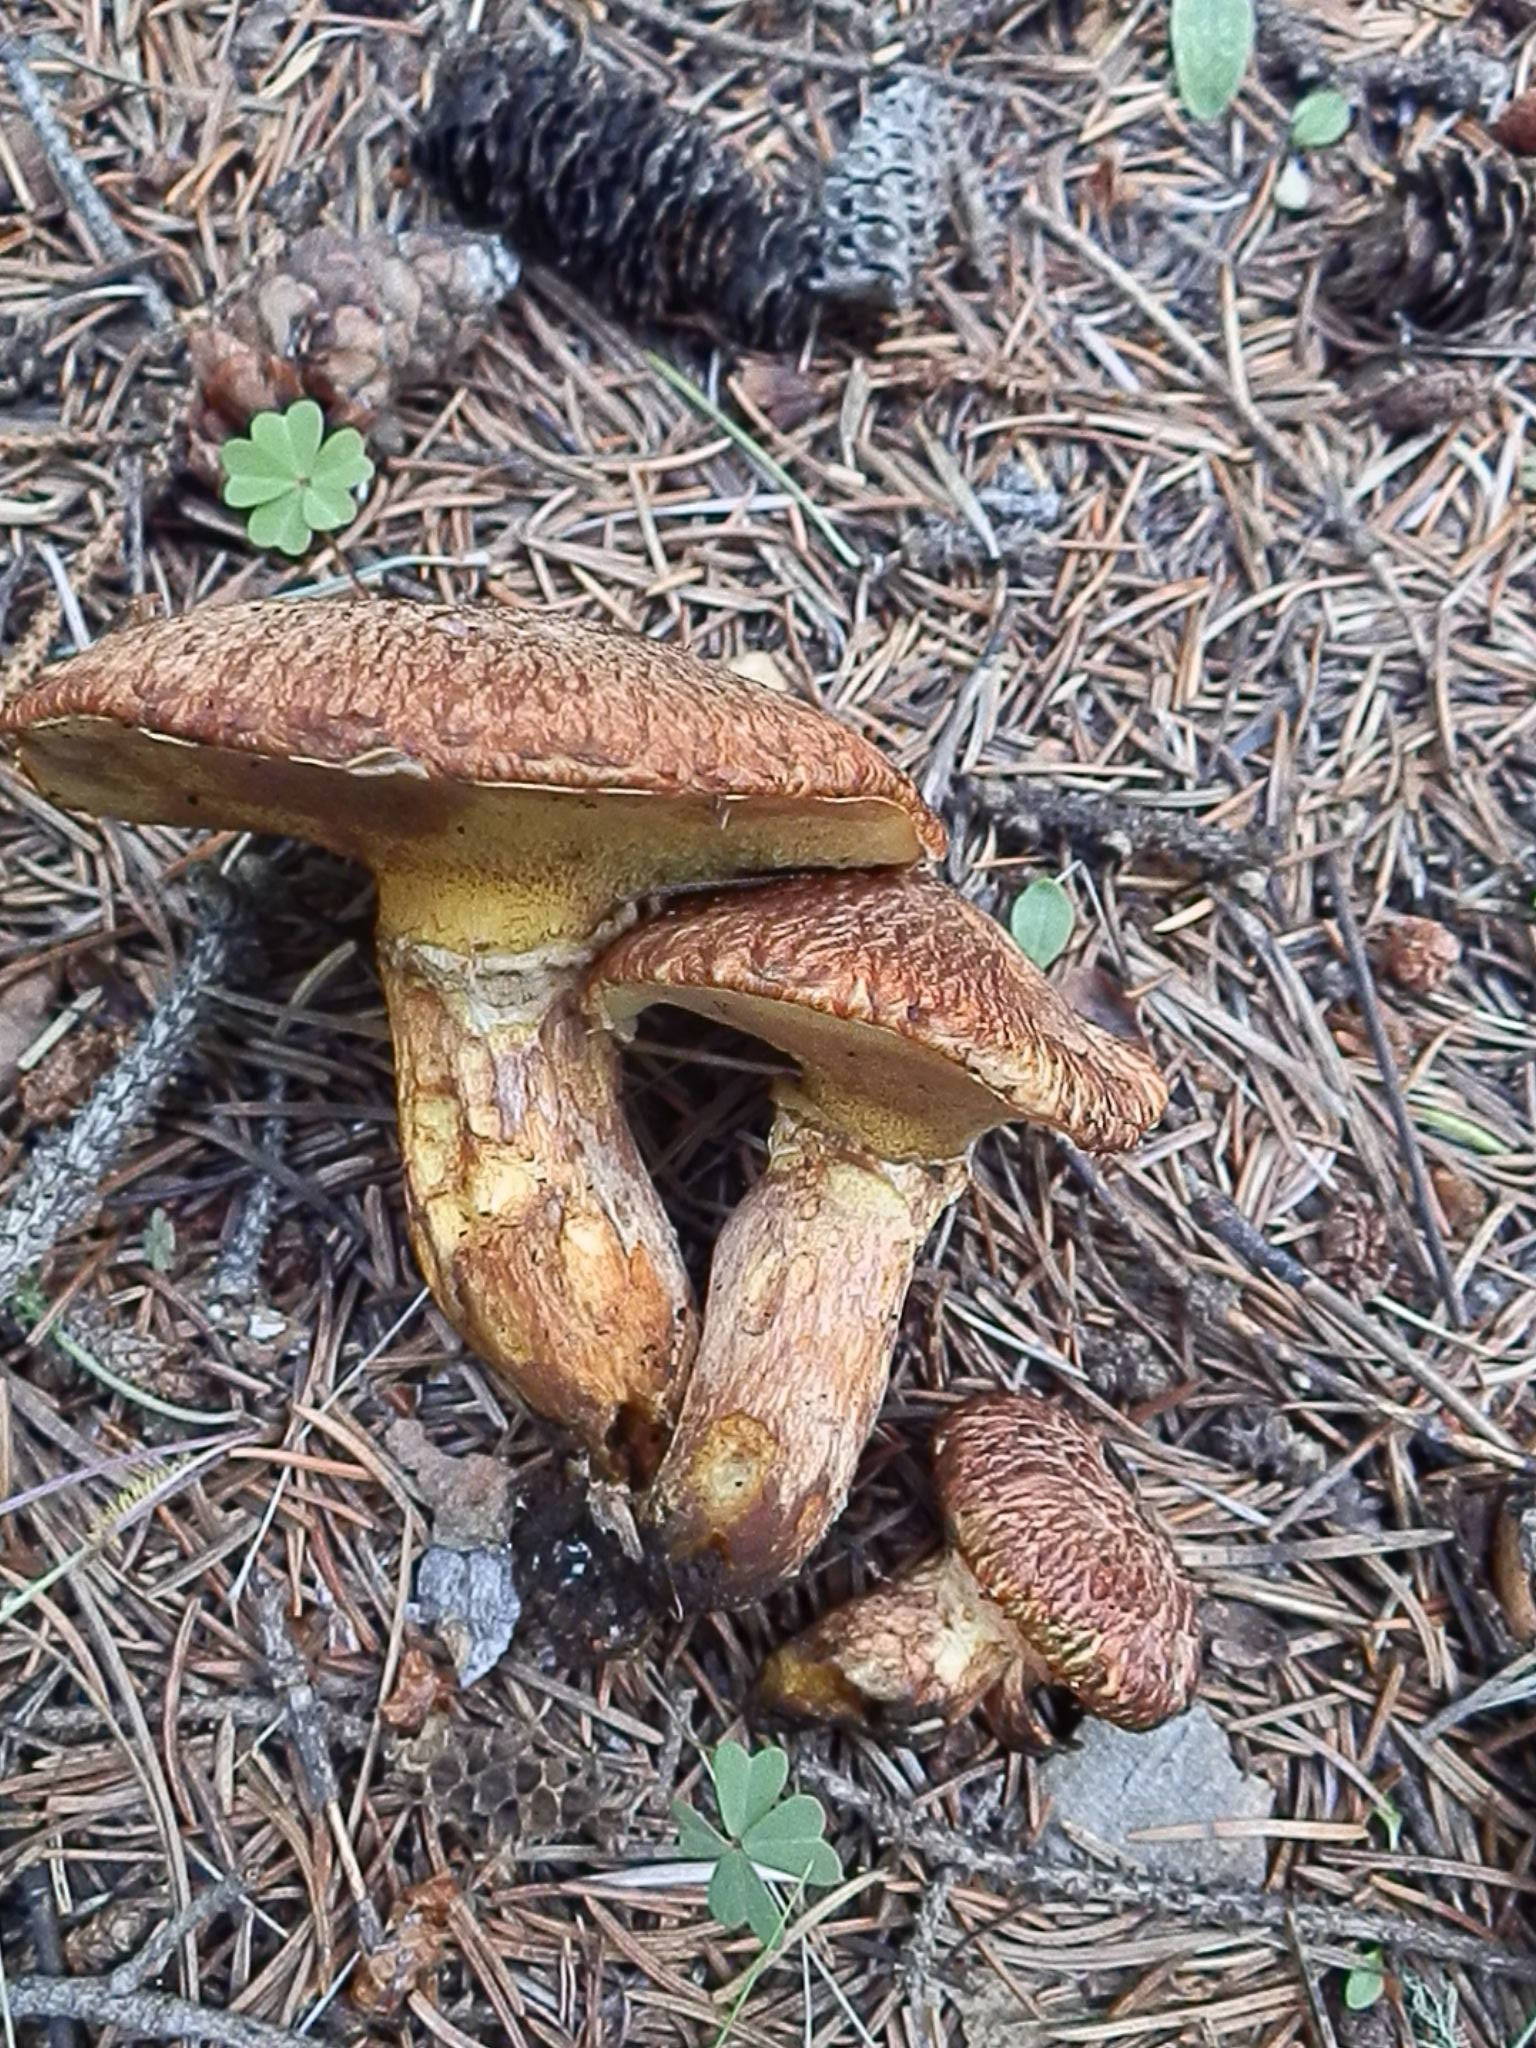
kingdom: Fungi
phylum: Basidiomycota
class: Agaricomycetes
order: Boletales
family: Suillaceae
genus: Suillus
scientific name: Suillus lakei
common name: Western painted suillus
